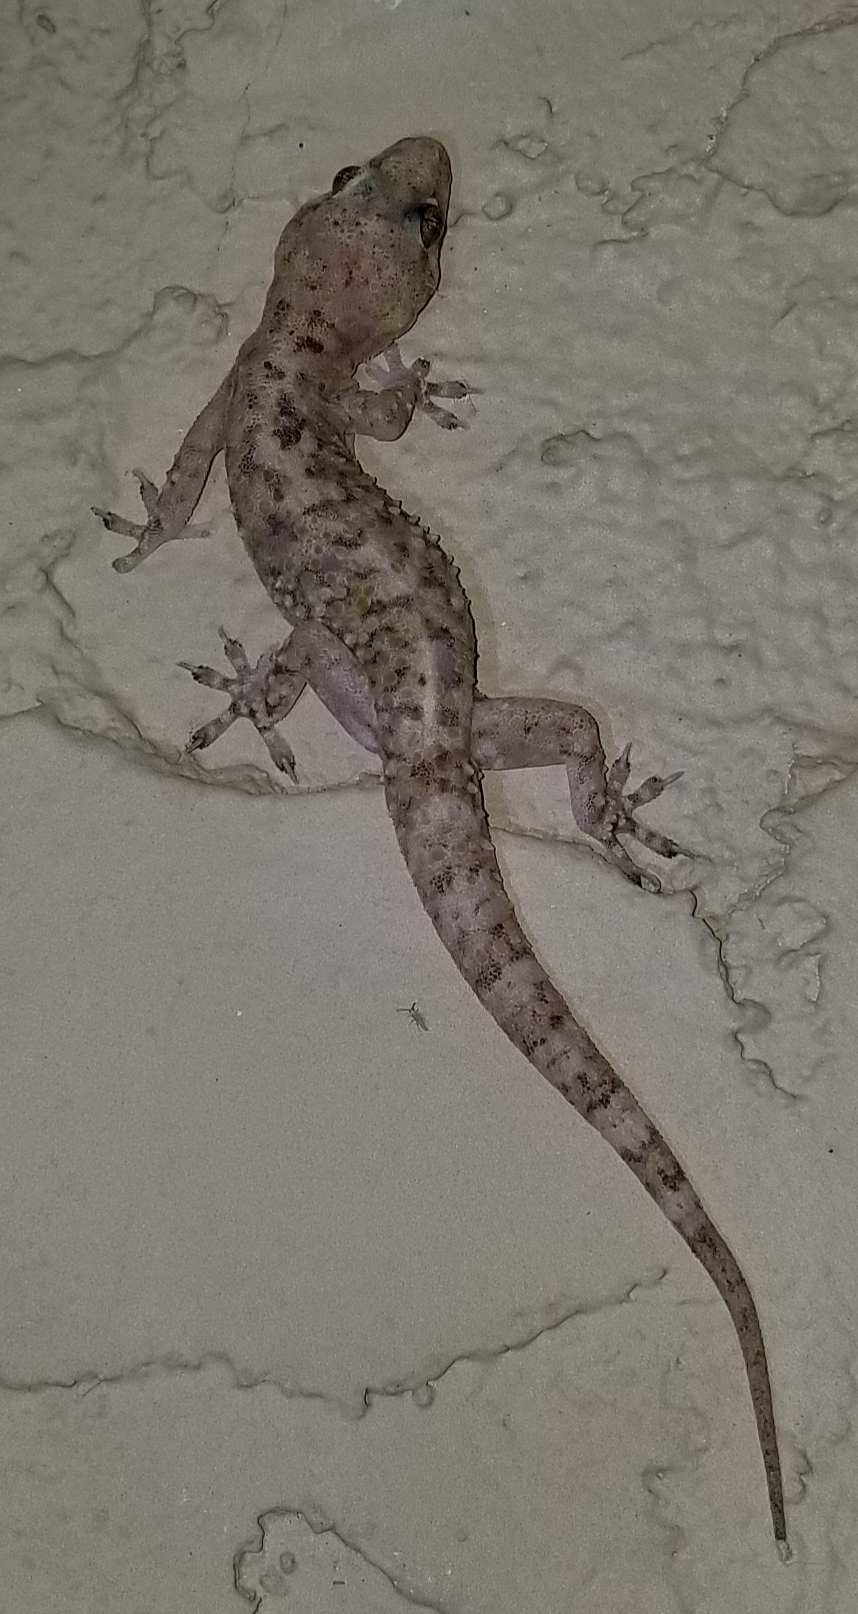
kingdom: Animalia
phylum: Chordata
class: Squamata
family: Gekkonidae
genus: Hemidactylus
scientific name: Hemidactylus turcicus
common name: Turkish gecko
